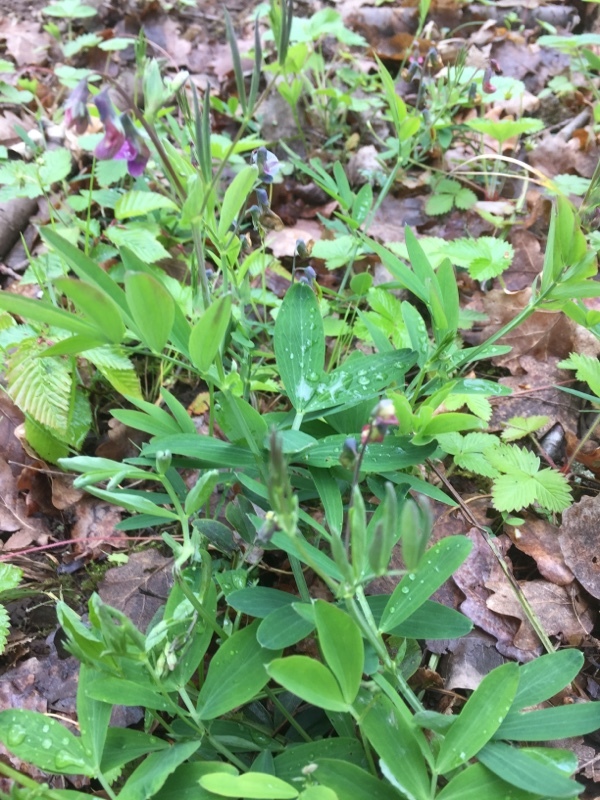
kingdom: Plantae
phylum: Tracheophyta
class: Magnoliopsida
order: Fabales
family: Fabaceae
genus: Lathyrus
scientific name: Lathyrus linifolius
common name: Bitter-vetch
